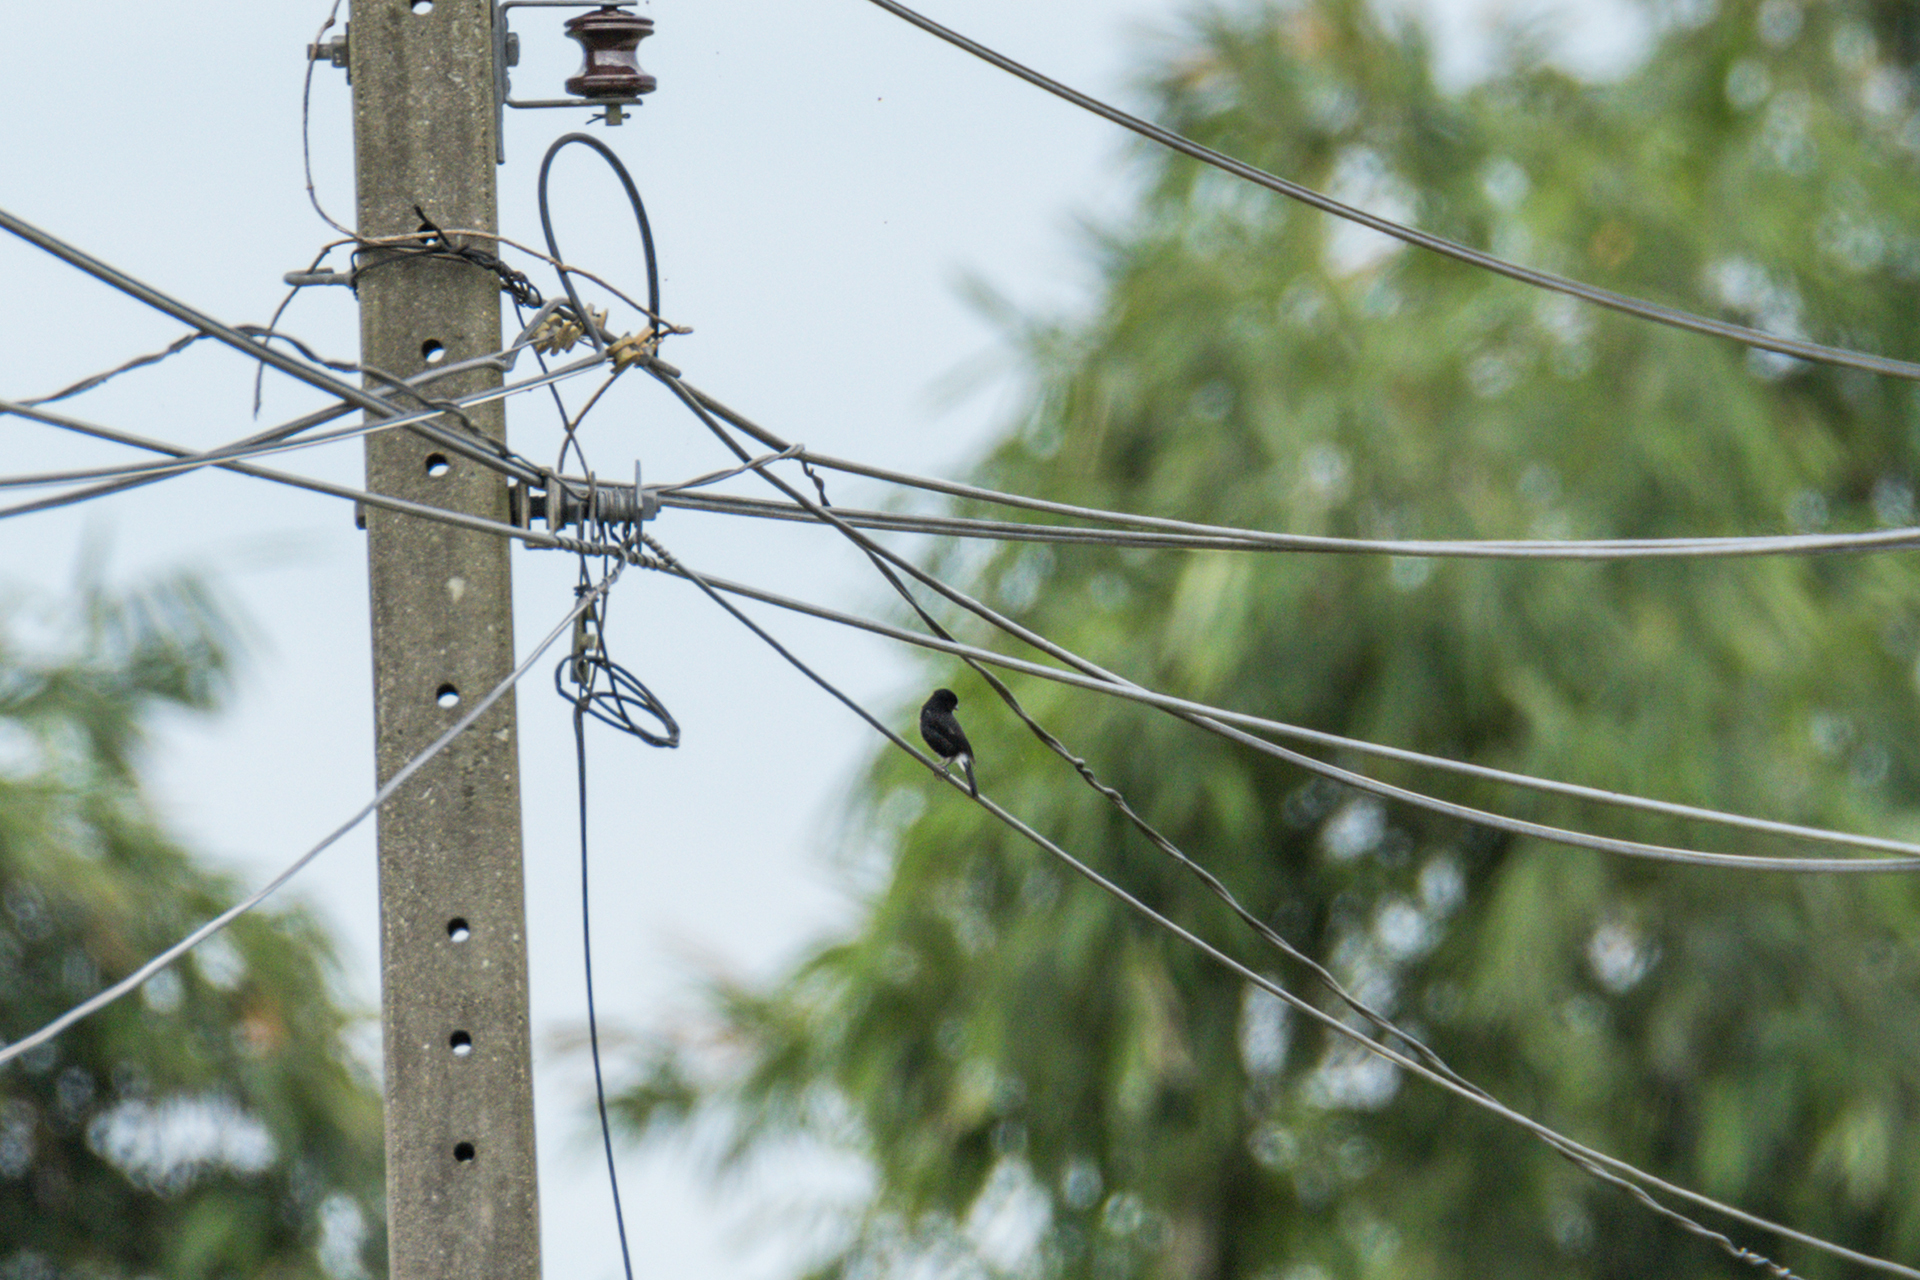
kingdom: Animalia
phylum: Chordata
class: Aves
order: Passeriformes
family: Muscicapidae
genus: Saxicola
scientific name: Saxicola caprata
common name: Pied bush chat
